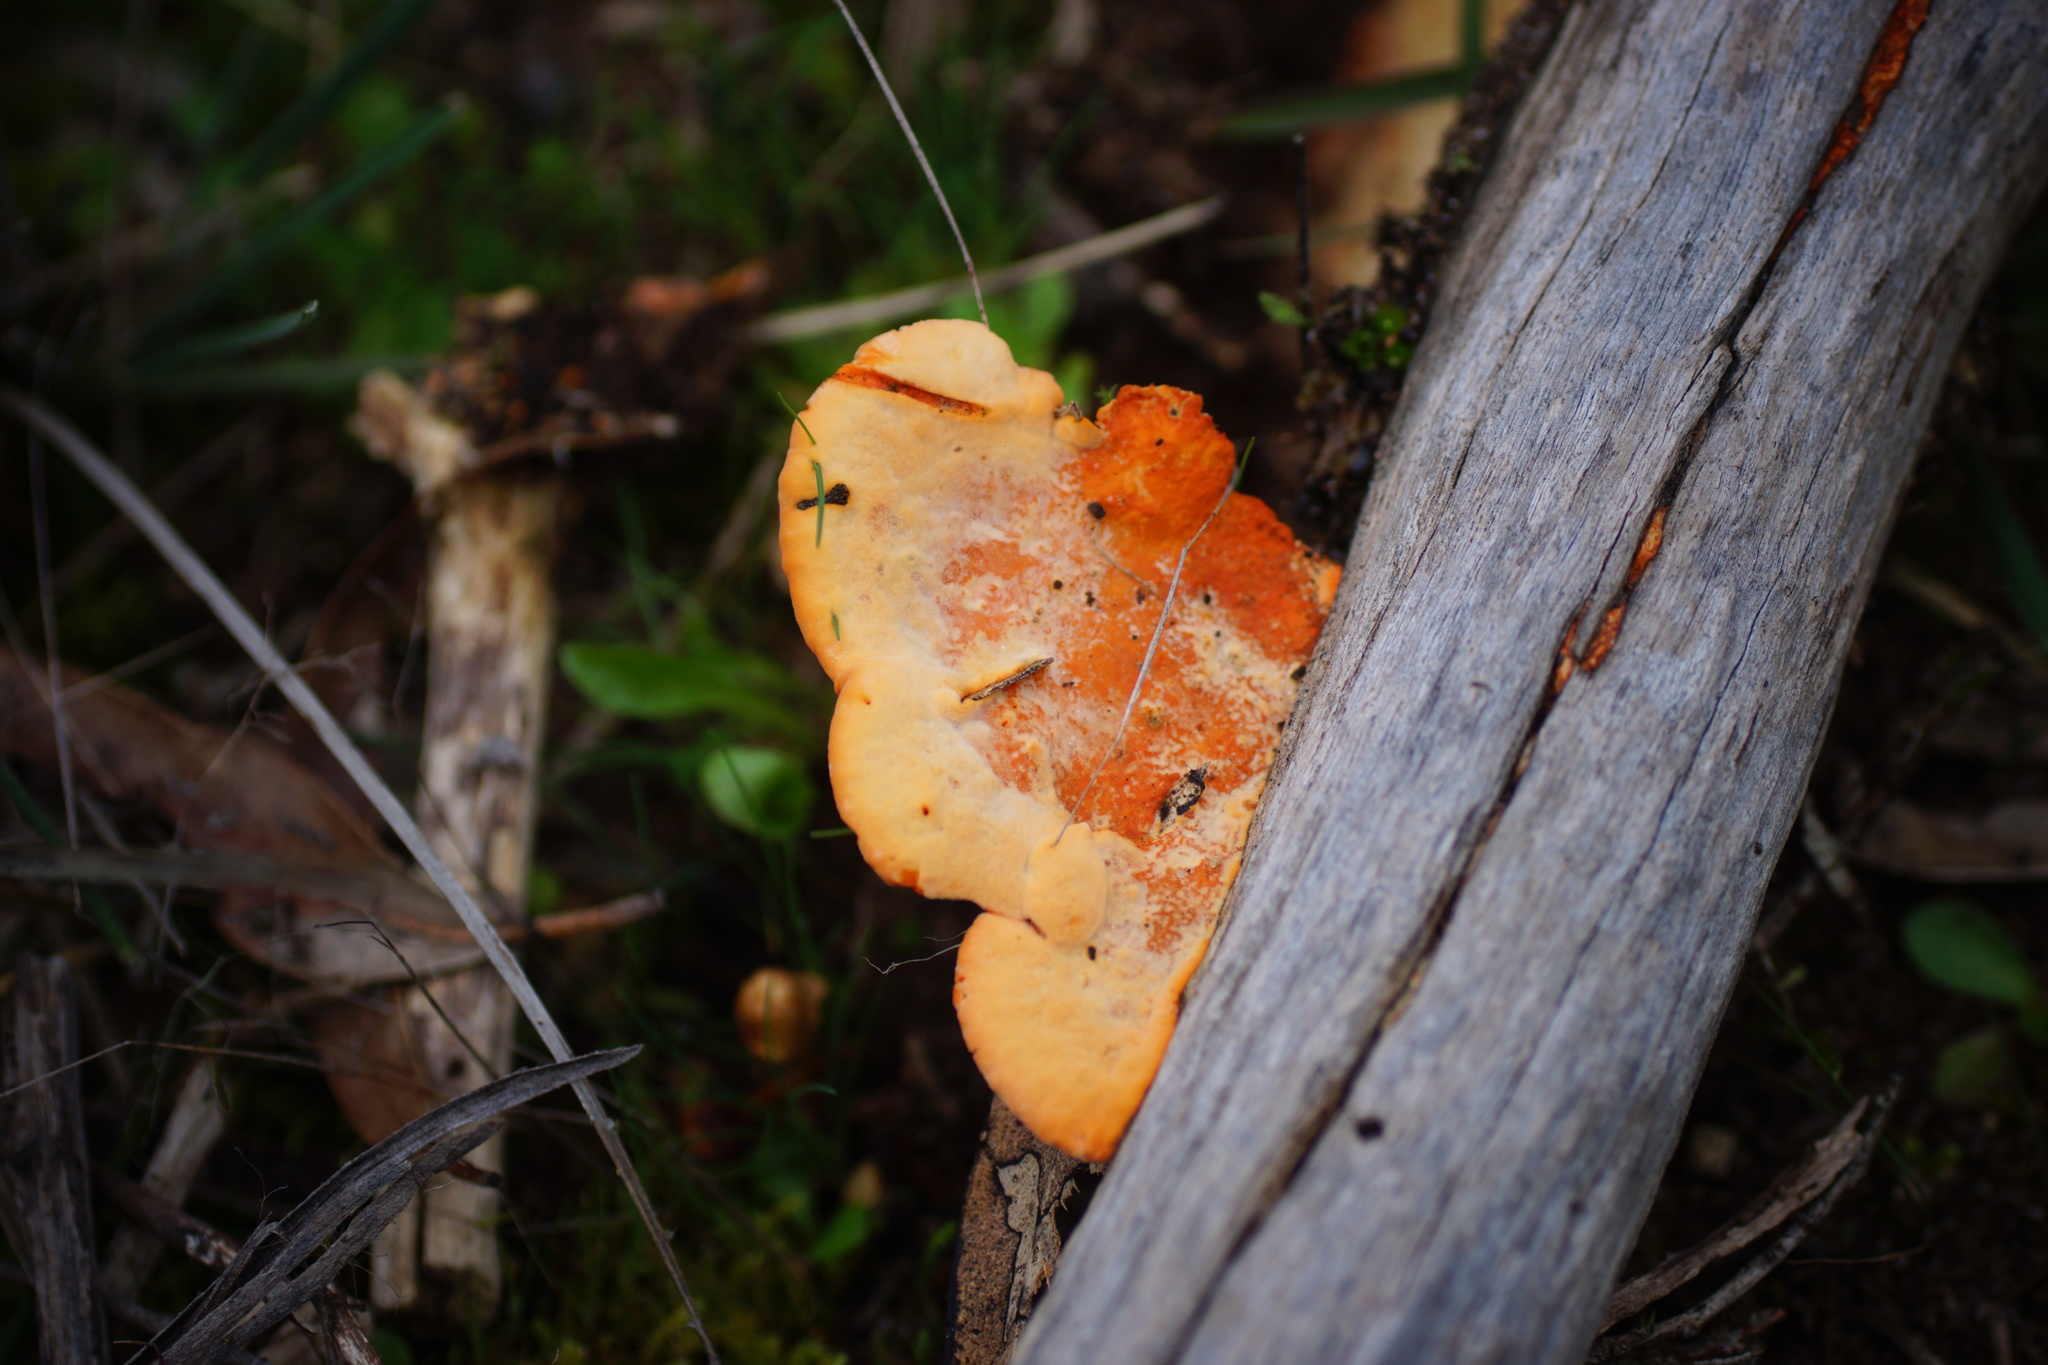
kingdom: Fungi
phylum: Basidiomycota
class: Agaricomycetes
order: Polyporales
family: Polyporaceae
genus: Trametes
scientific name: Trametes coccinea
